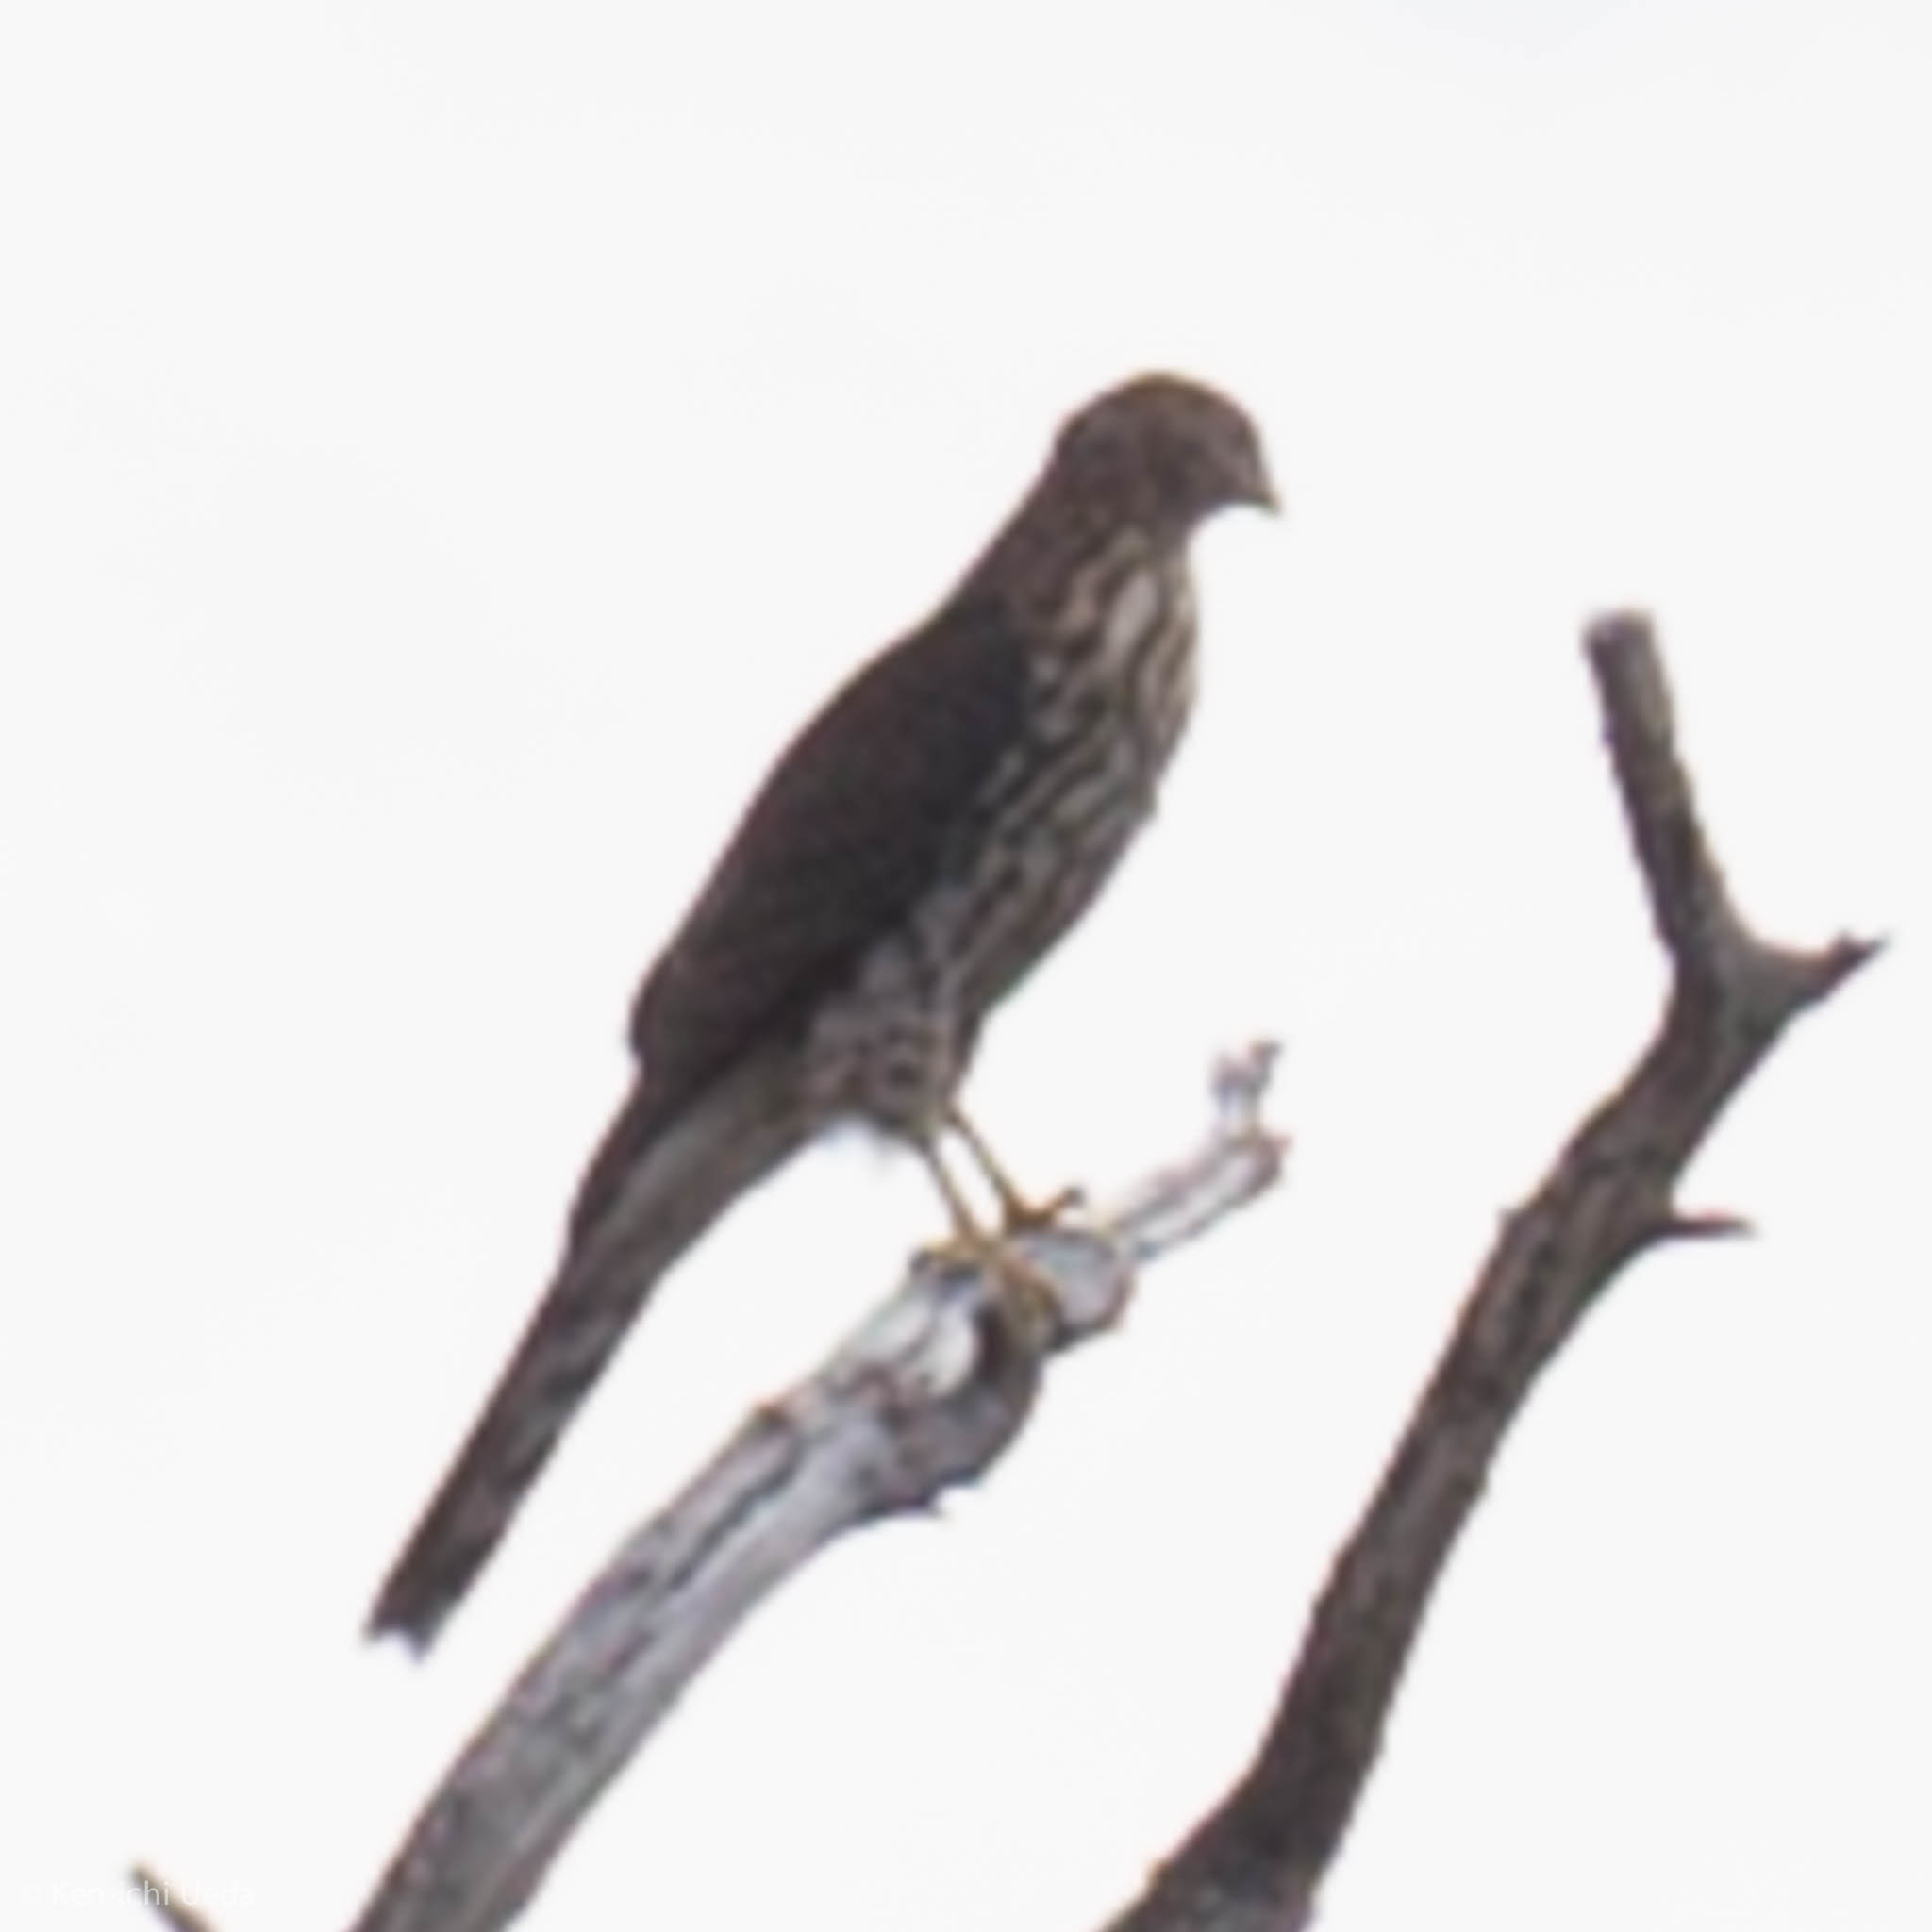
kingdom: Animalia
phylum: Chordata
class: Aves
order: Accipitriformes
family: Accipitridae
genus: Accipiter
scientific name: Accipiter cooperii
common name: Cooper's hawk
